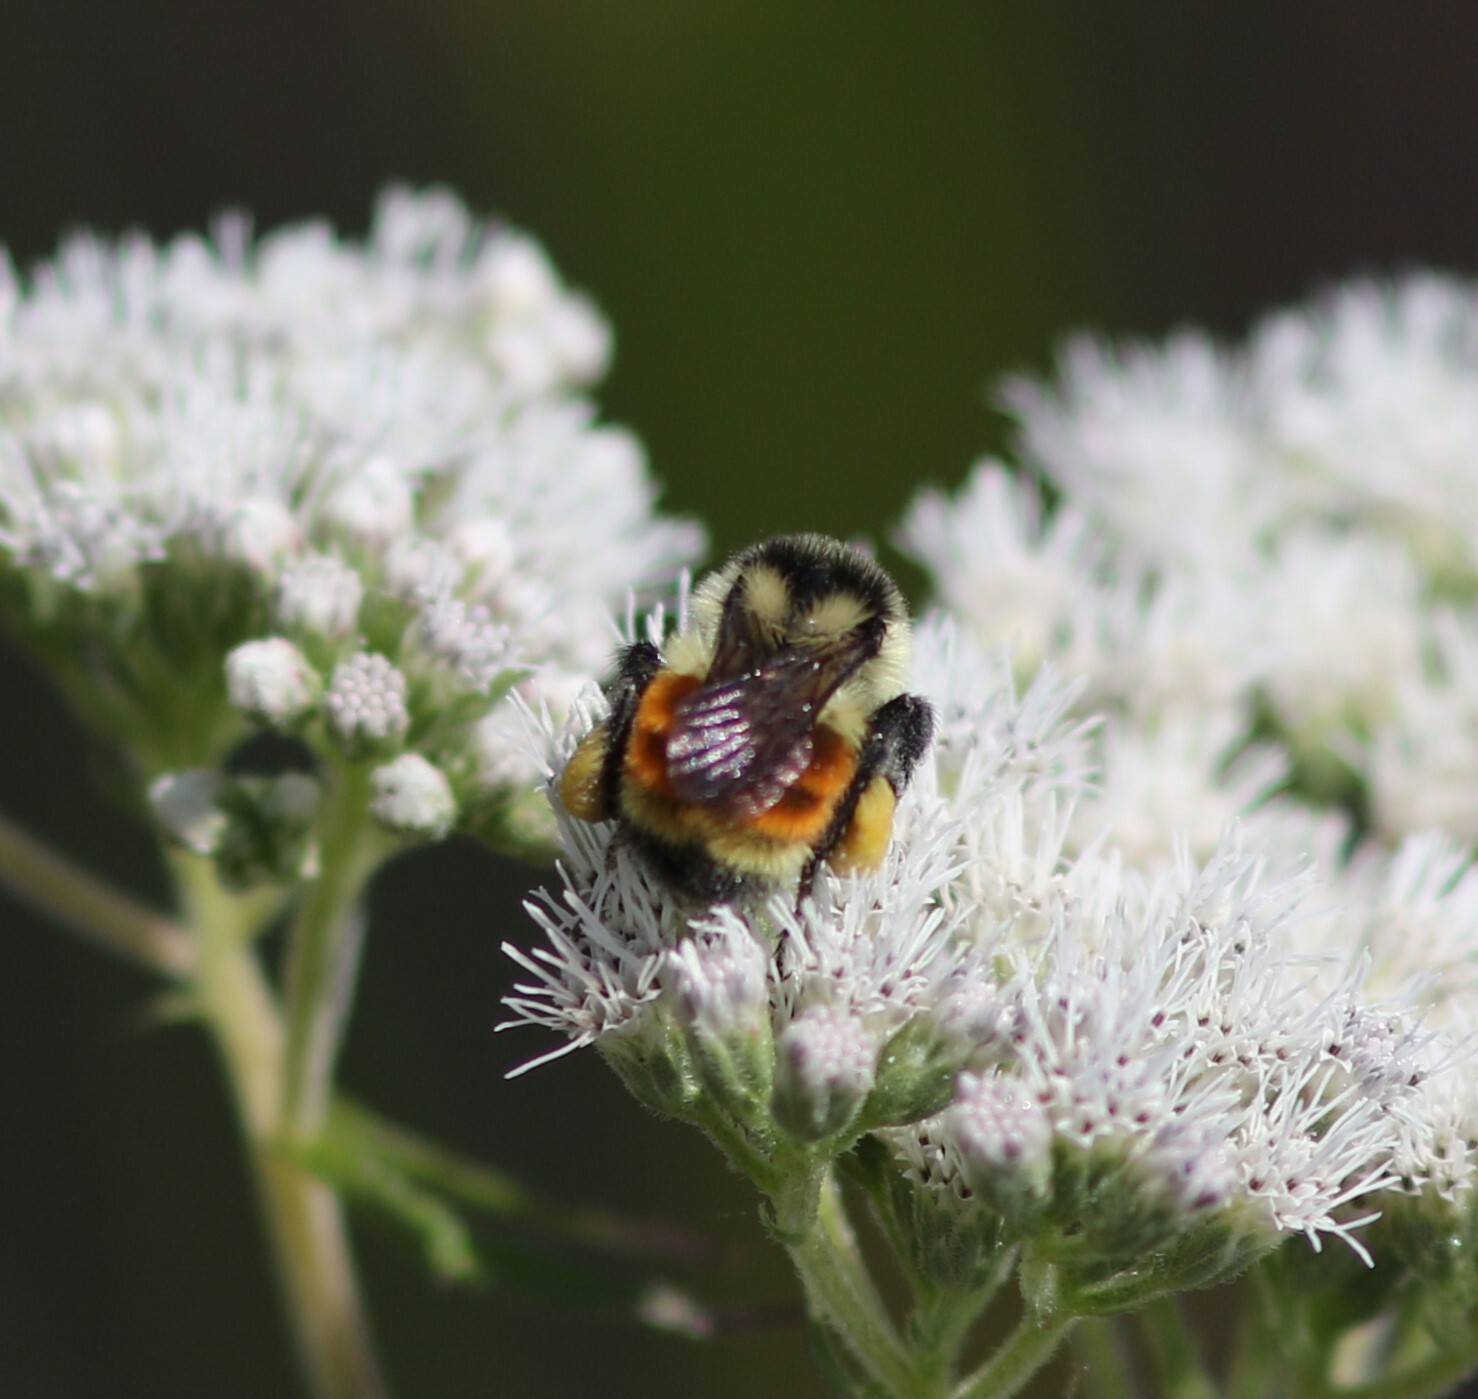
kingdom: Animalia
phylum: Arthropoda
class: Insecta
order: Hymenoptera
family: Apidae
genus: Bombus
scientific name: Bombus ternarius
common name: Tri-colored bumble bee
